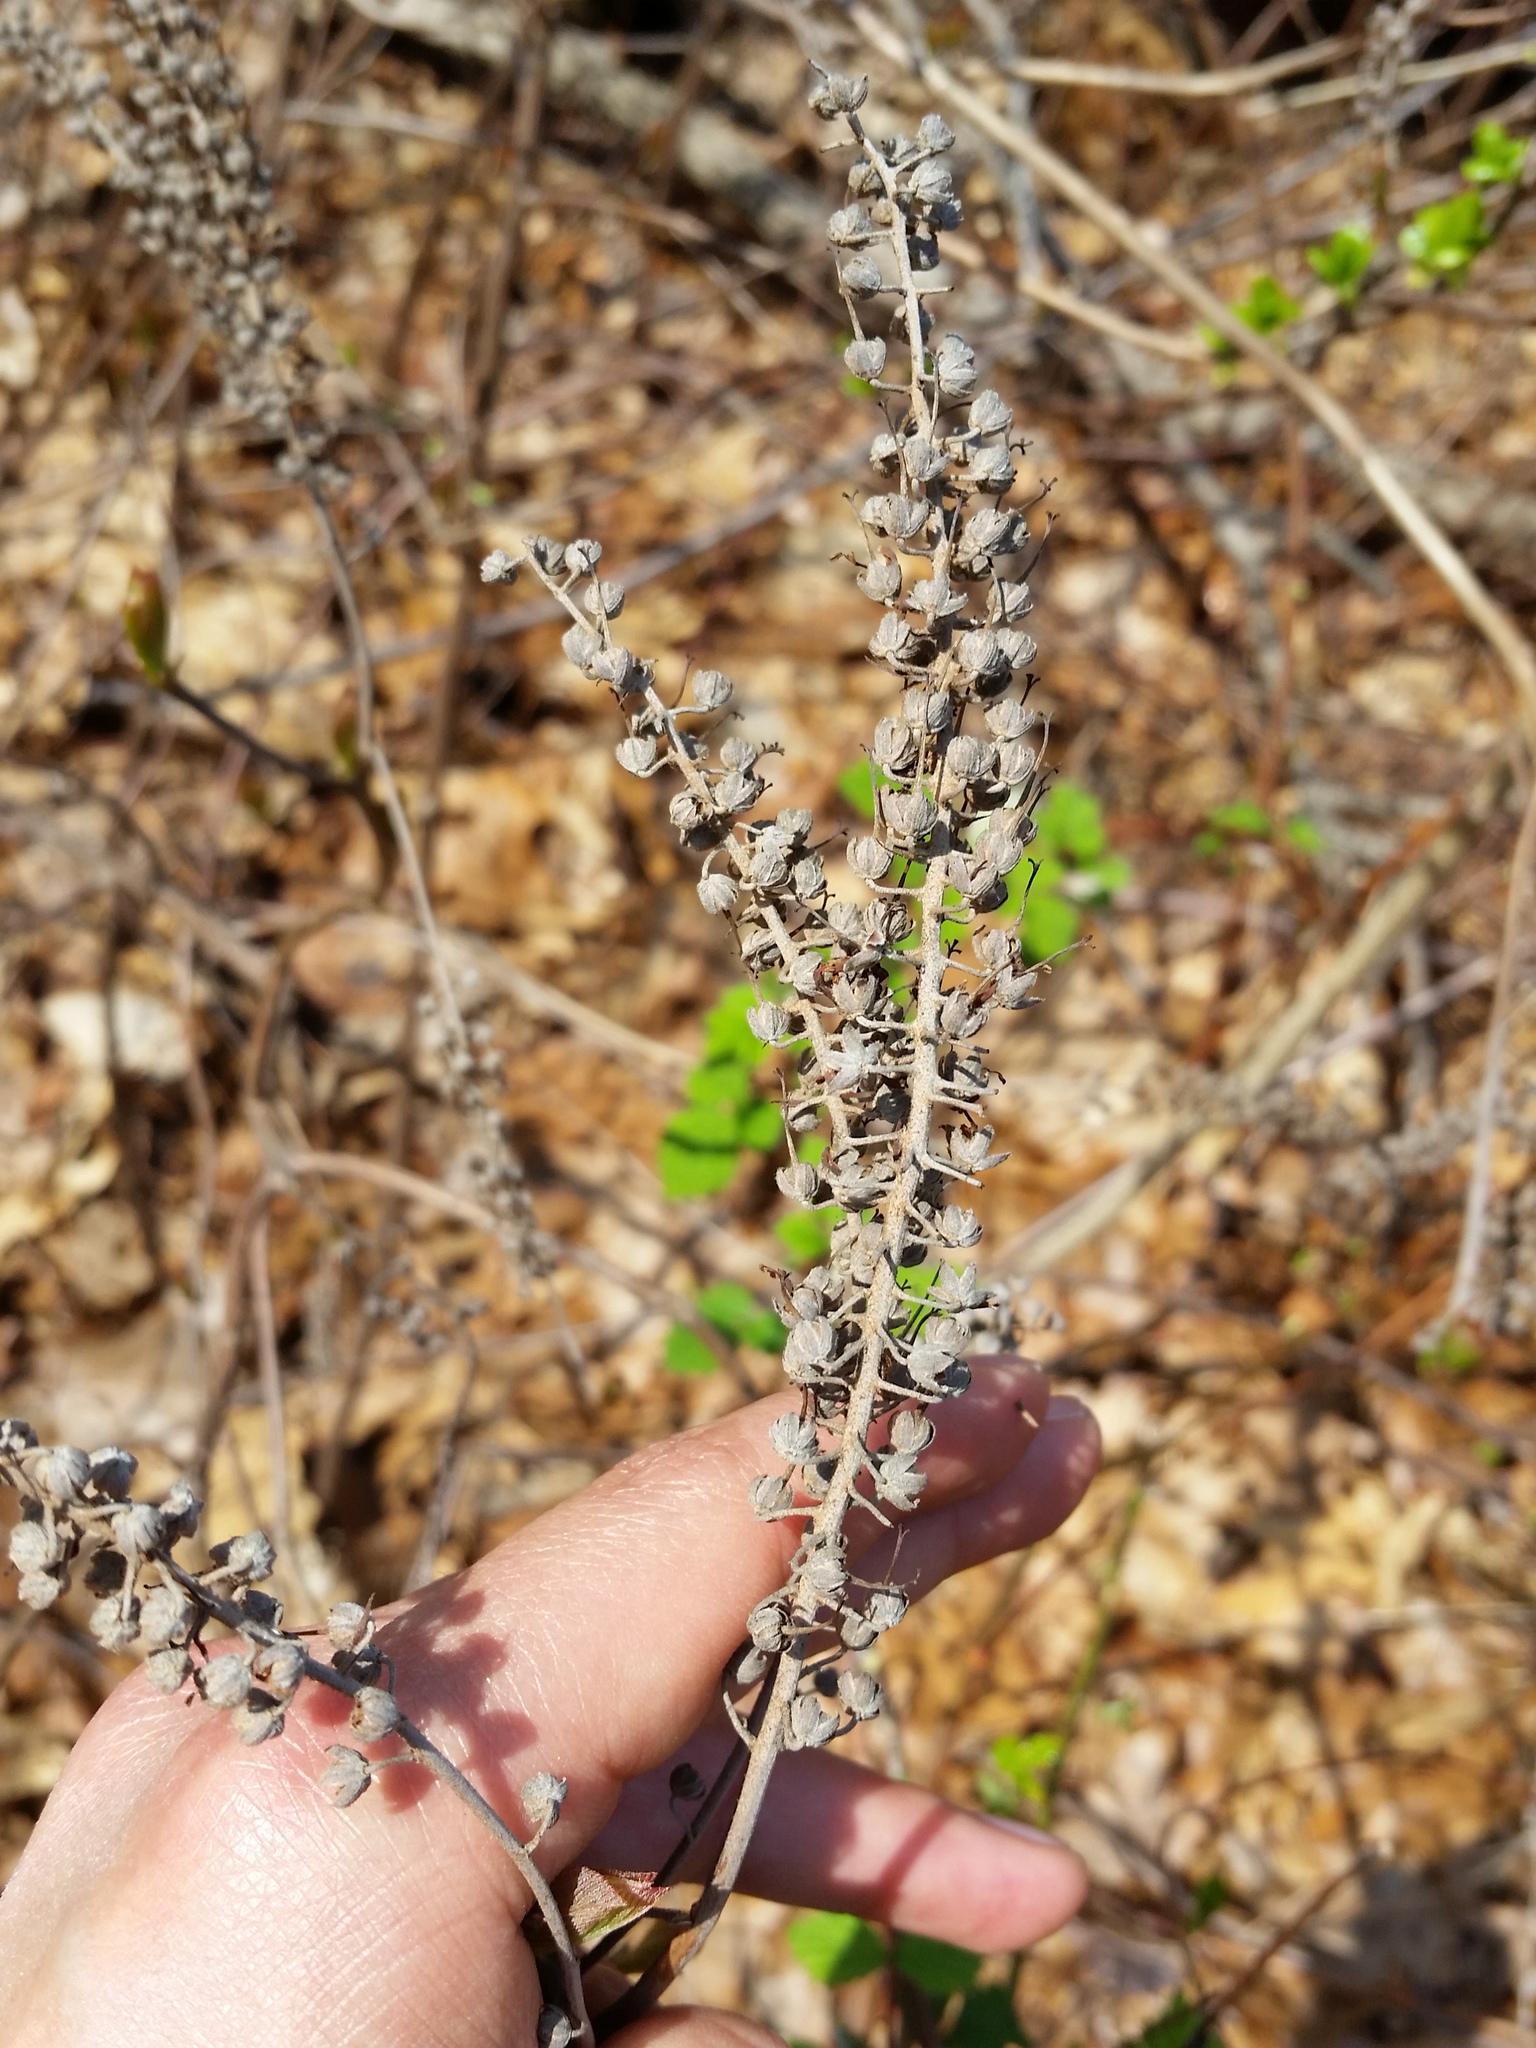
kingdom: Plantae
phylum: Tracheophyta
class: Magnoliopsida
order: Ericales
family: Clethraceae
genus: Clethra
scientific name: Clethra alnifolia
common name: Sweet pepperbush
